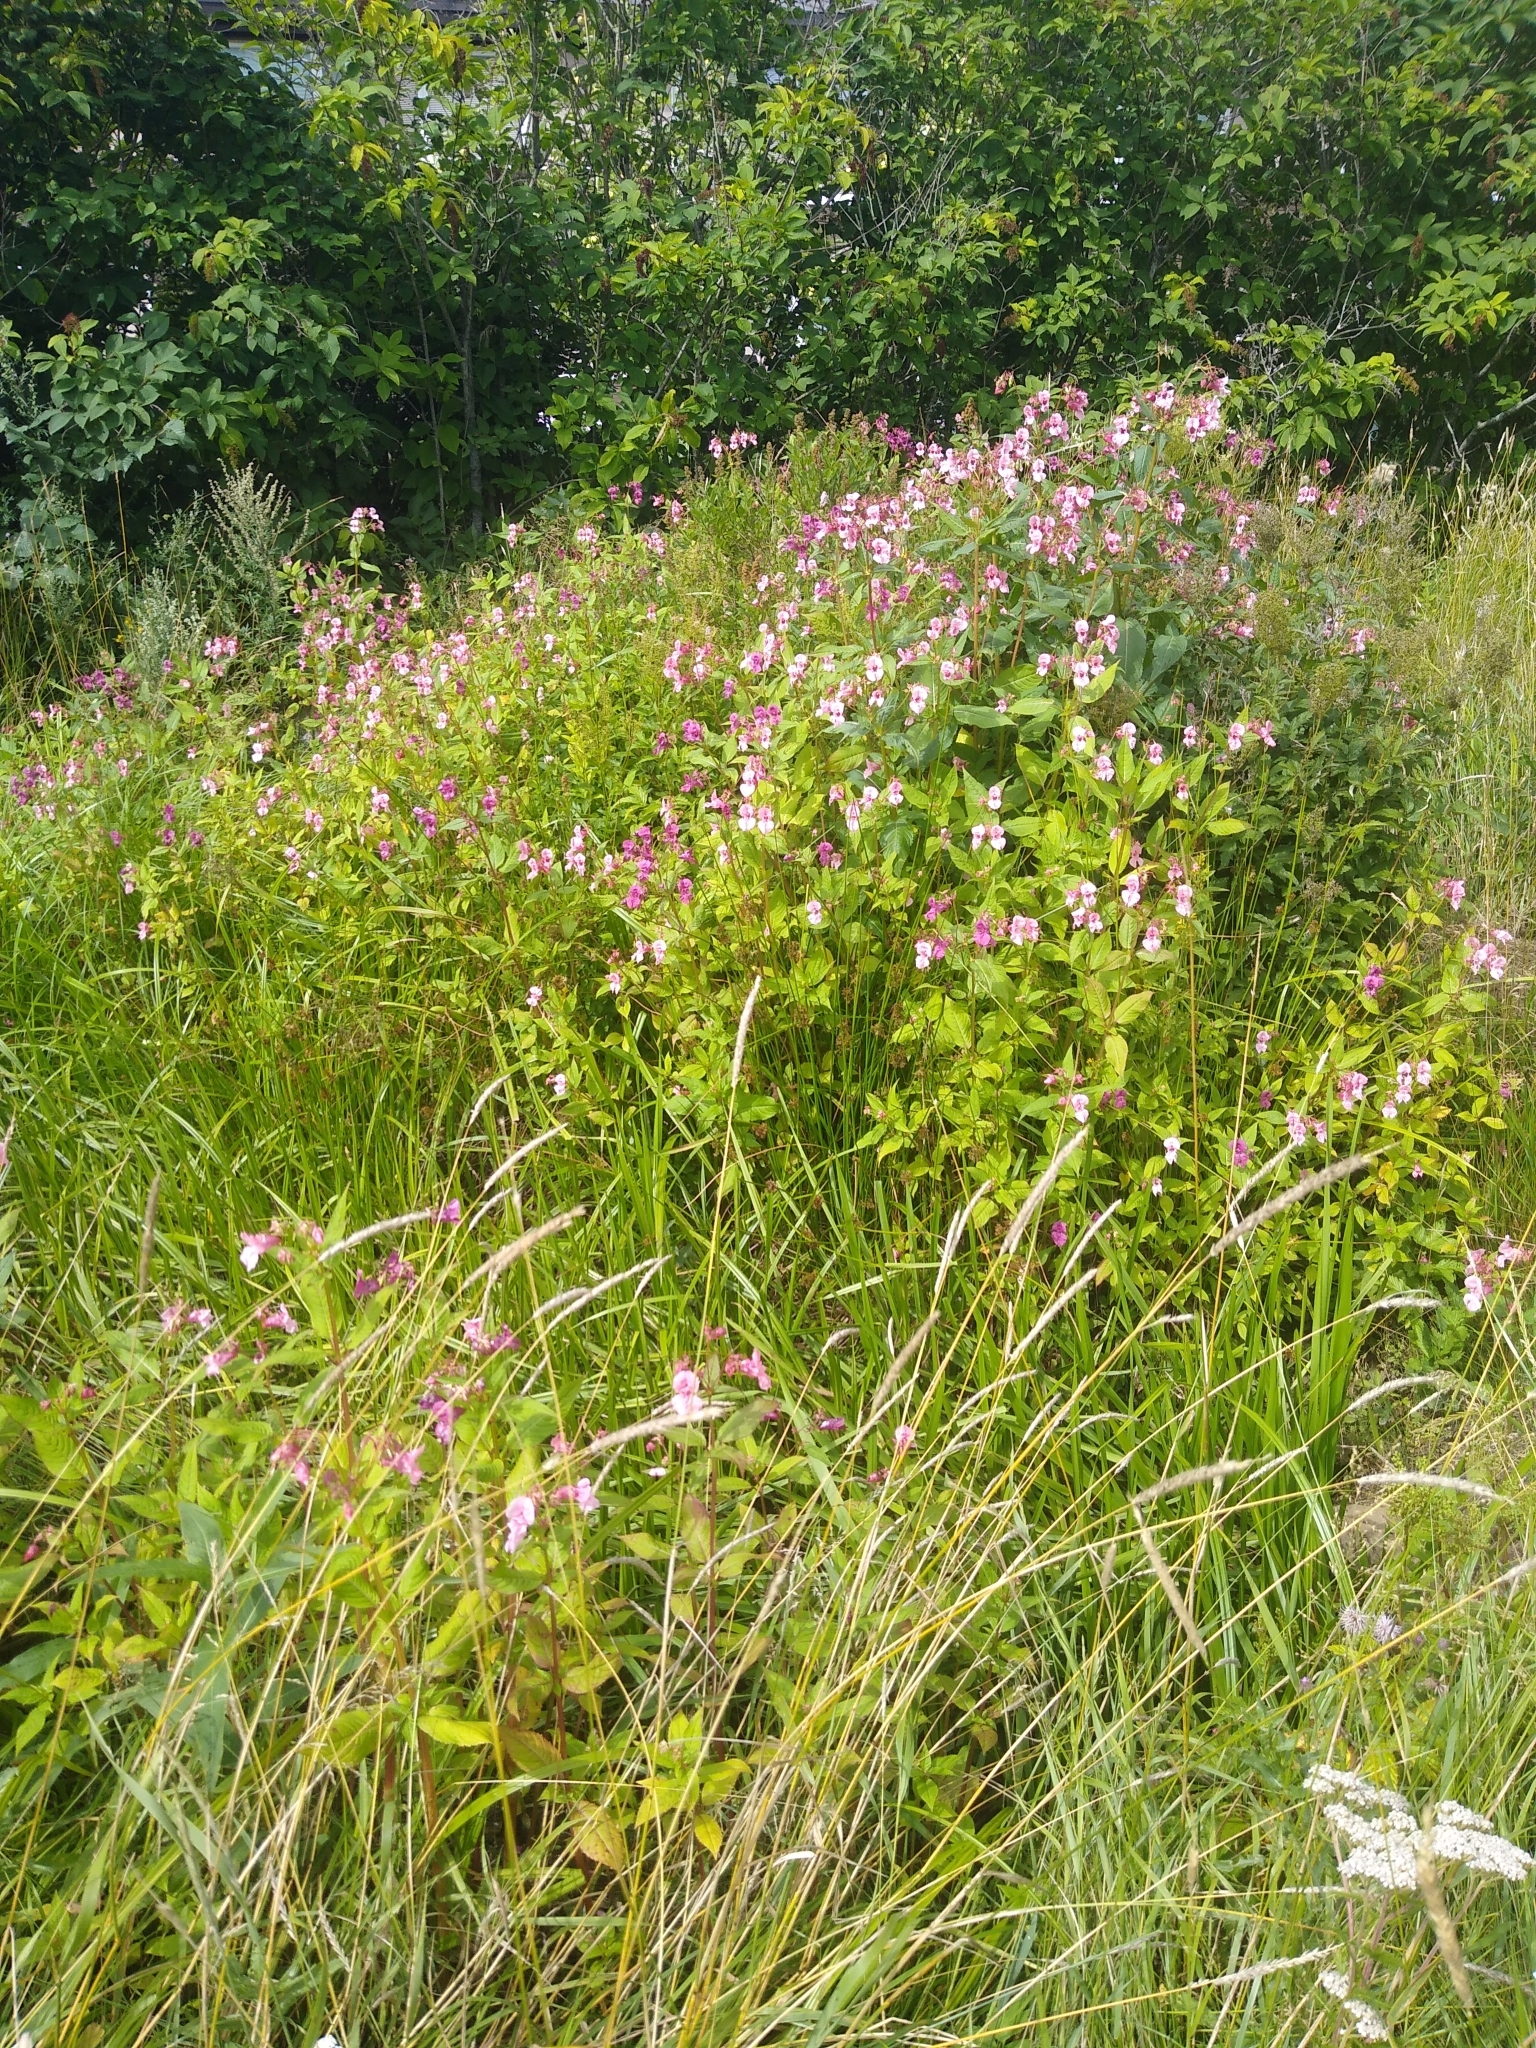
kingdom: Plantae
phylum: Tracheophyta
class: Magnoliopsida
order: Ericales
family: Balsaminaceae
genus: Impatiens
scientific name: Impatiens glandulifera
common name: Himalayan balsam
